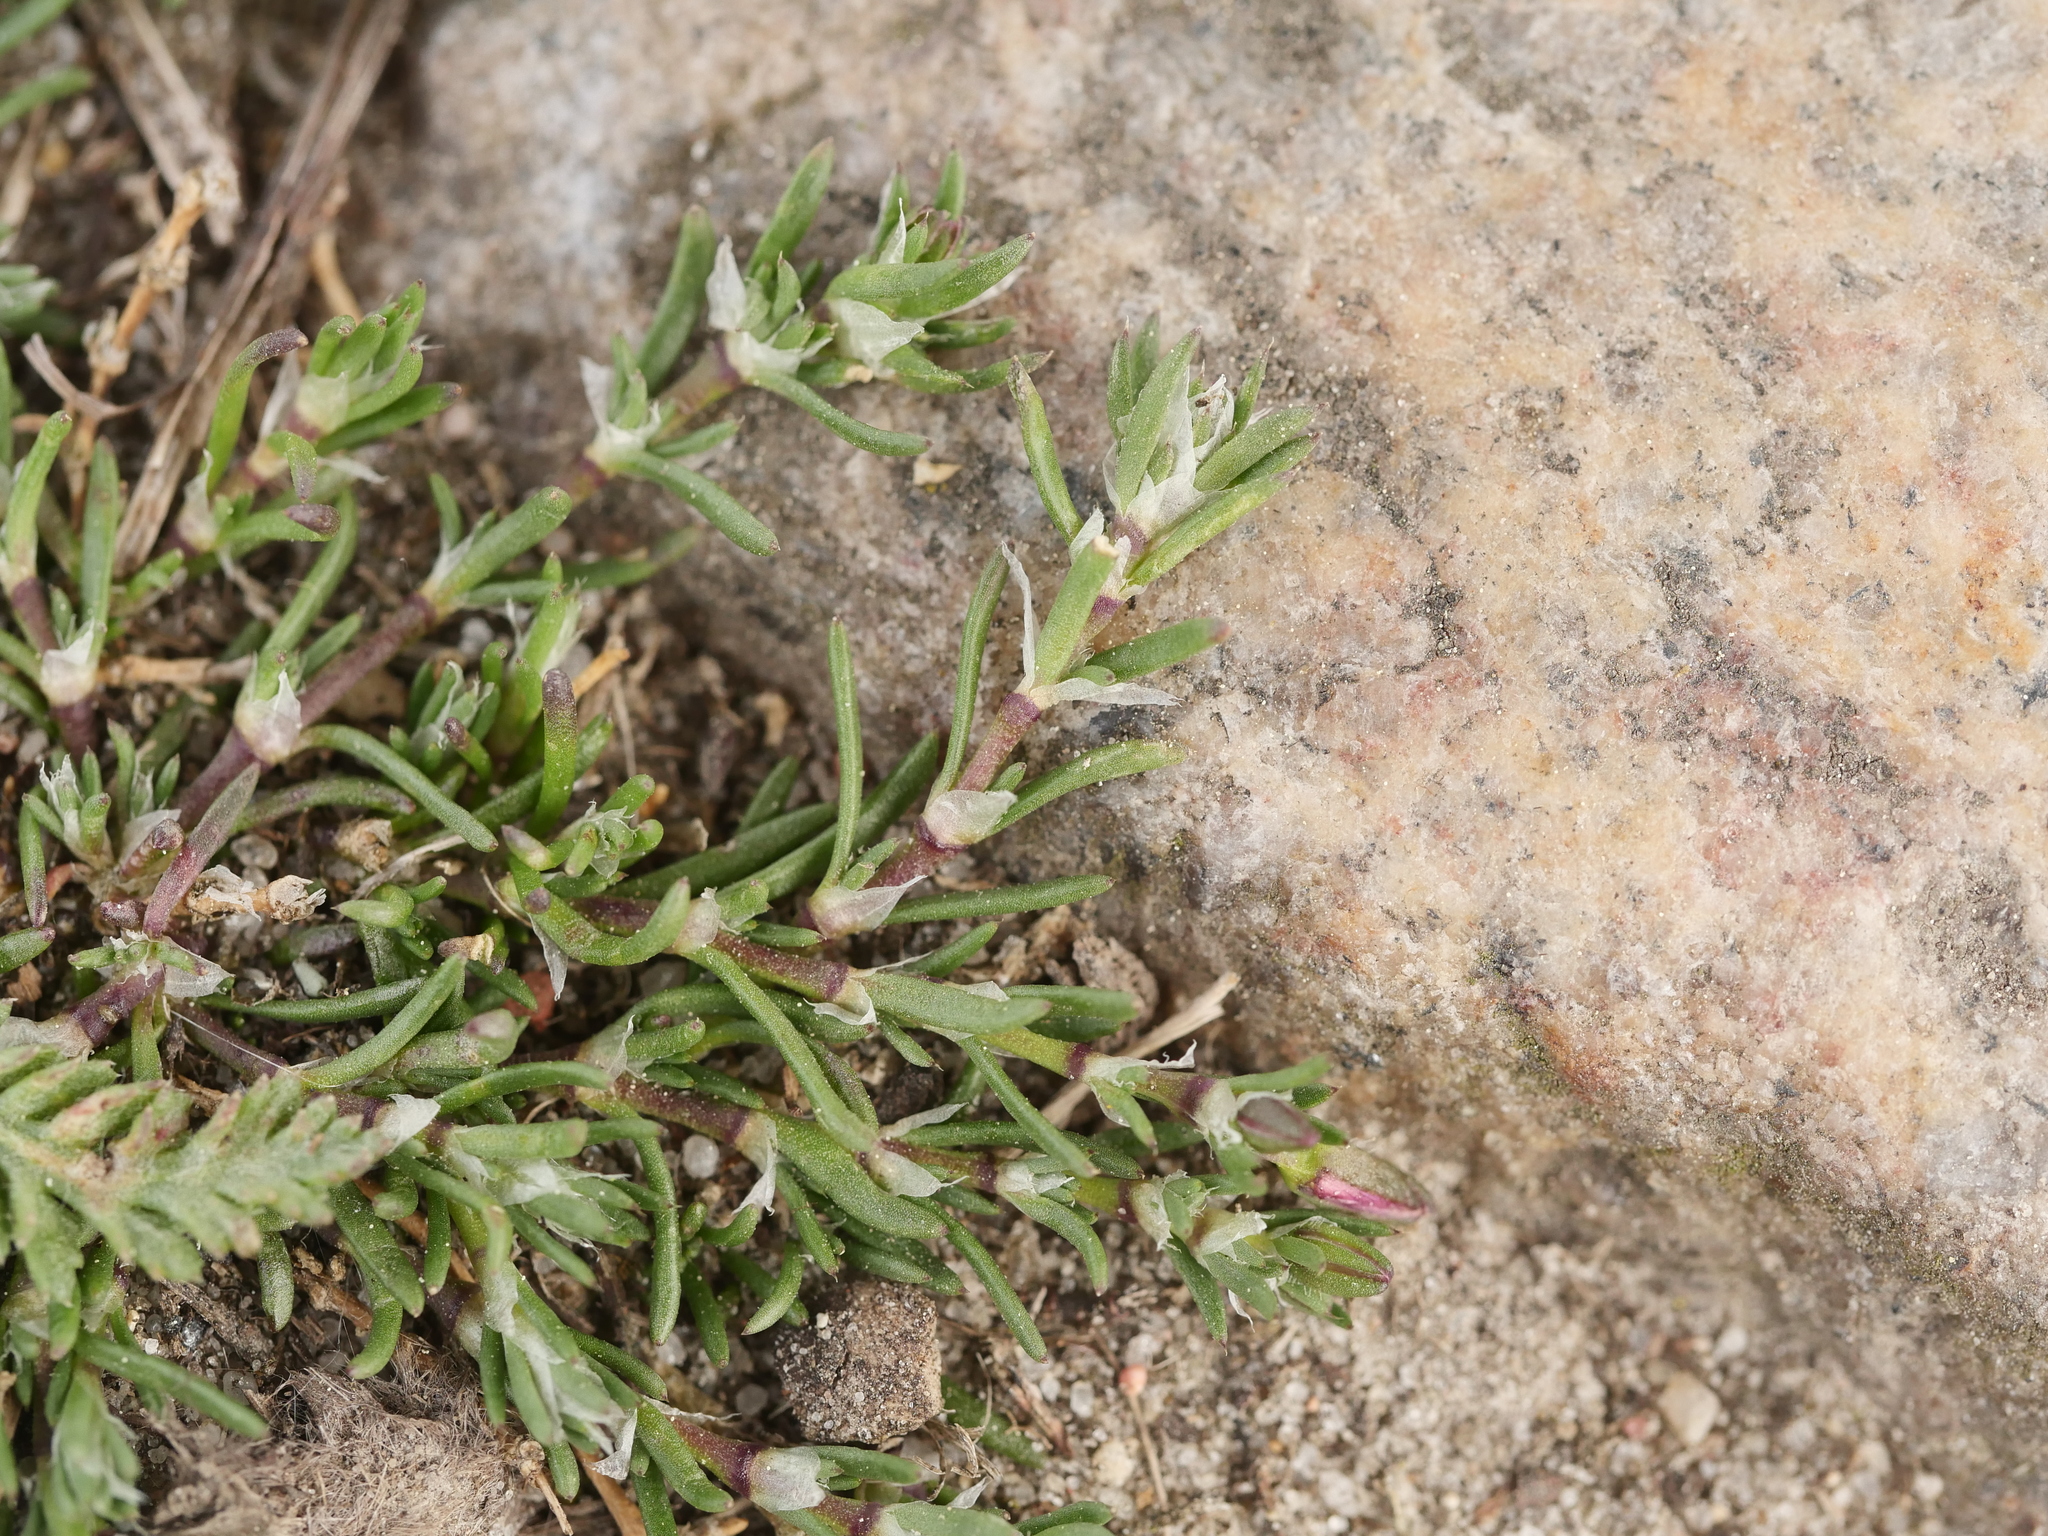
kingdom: Plantae
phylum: Tracheophyta
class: Magnoliopsida
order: Caryophyllales
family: Caryophyllaceae
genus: Spergularia
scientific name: Spergularia rubra
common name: Red sand-spurrey
